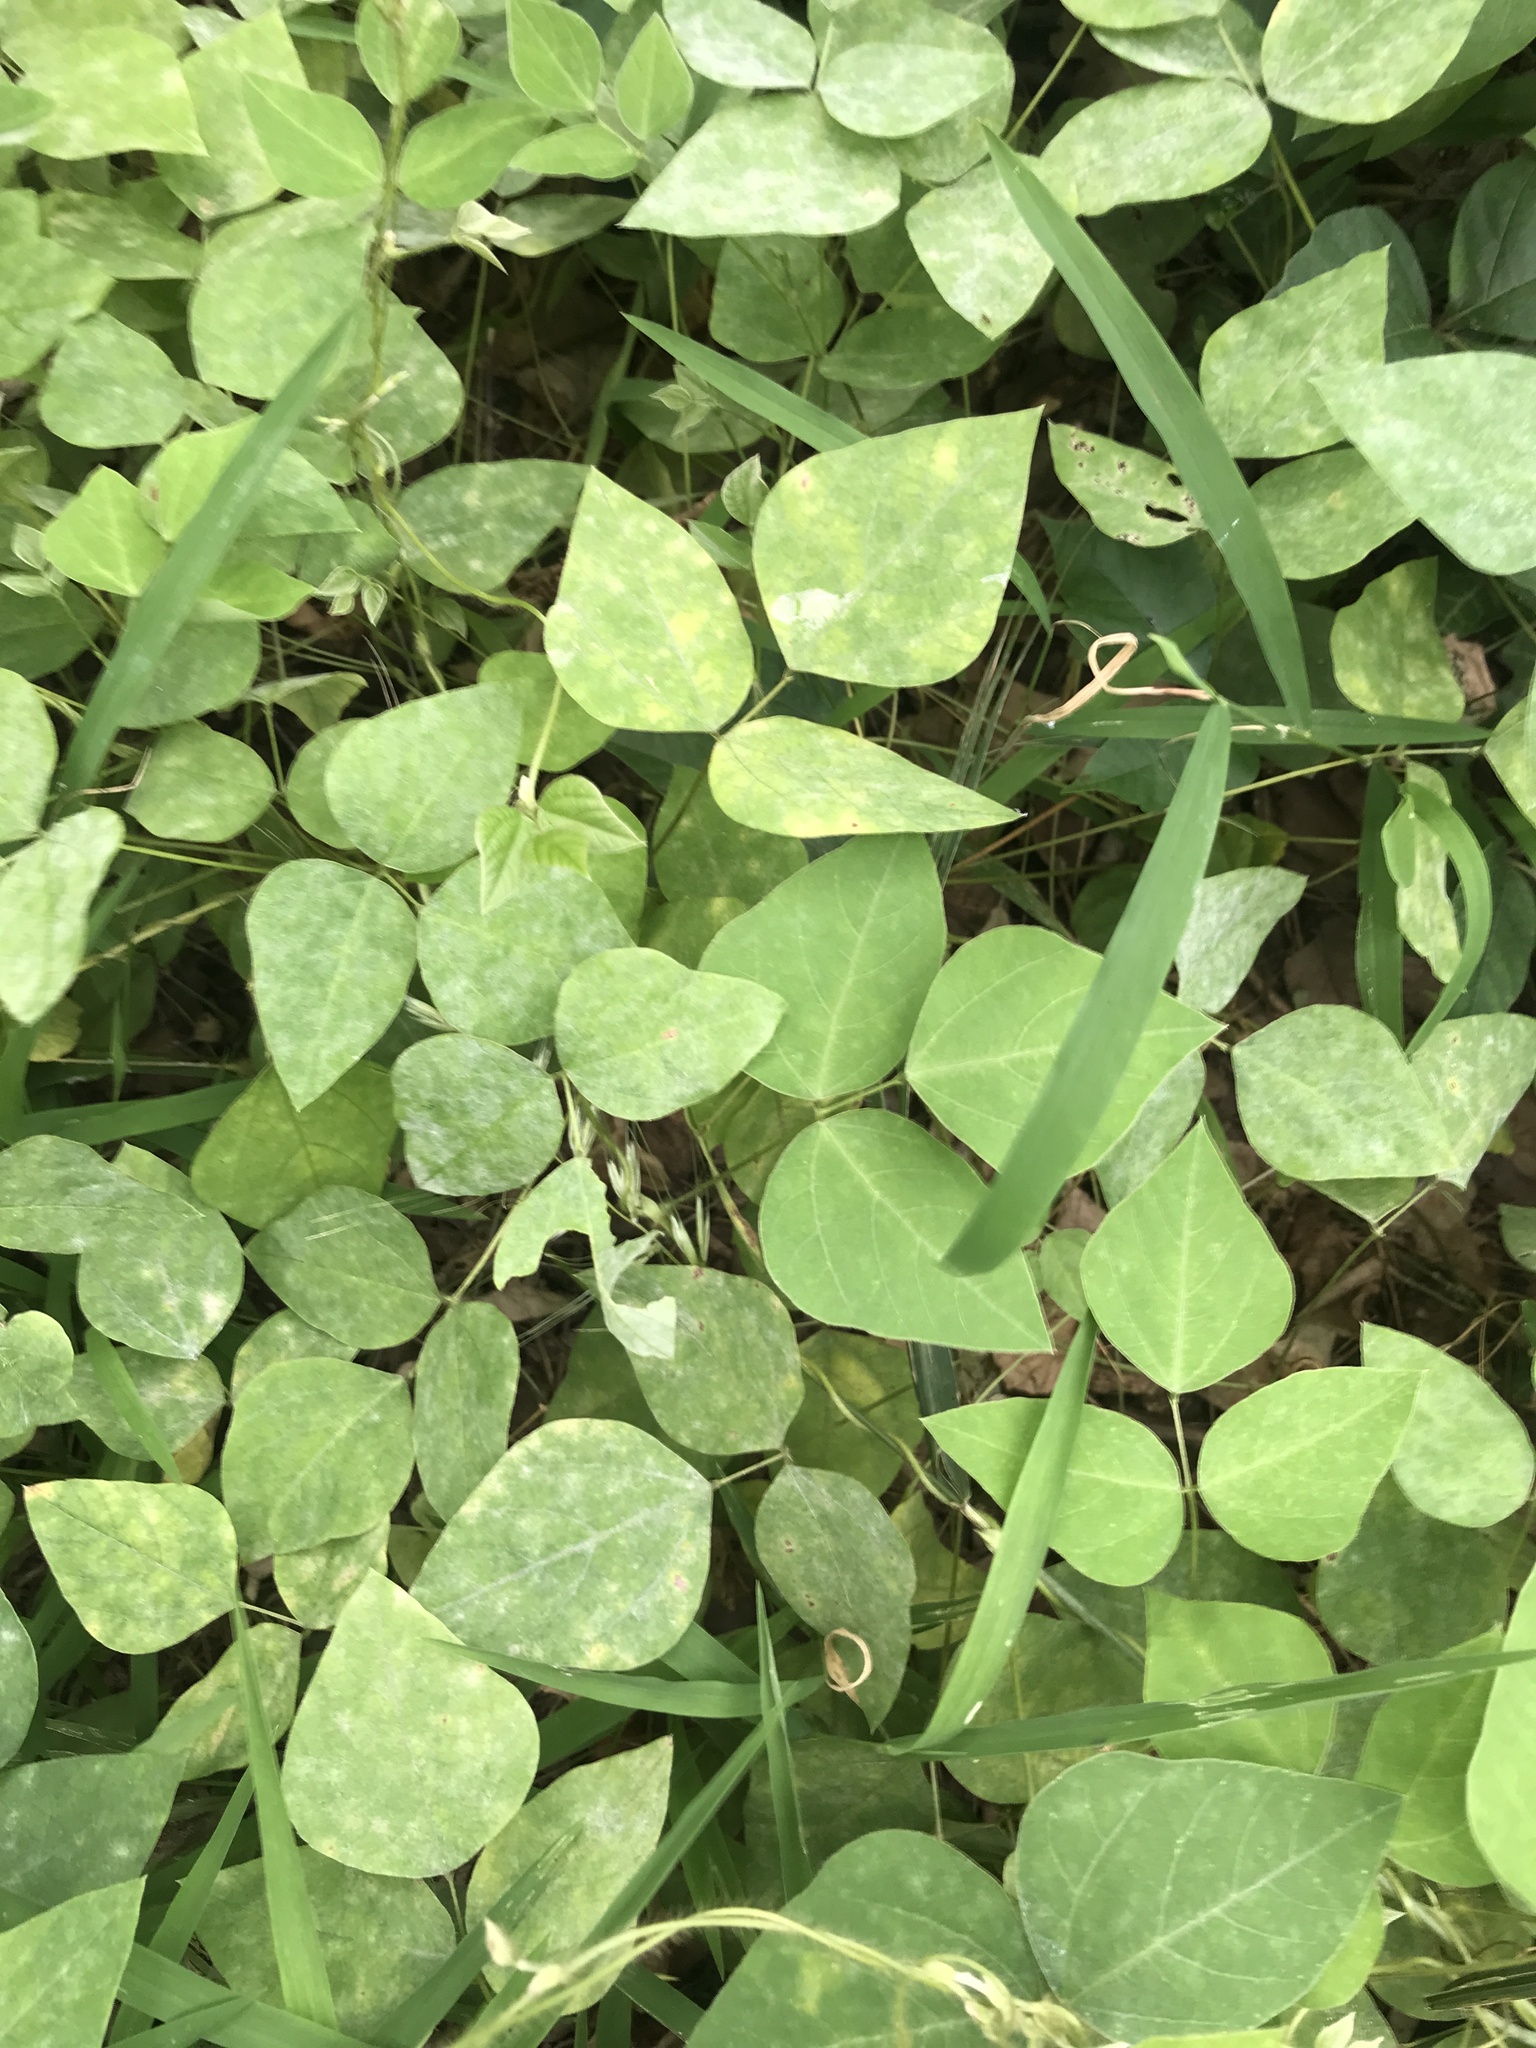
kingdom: Plantae
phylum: Tracheophyta
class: Magnoliopsida
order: Fabales
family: Fabaceae
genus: Amphicarpaea
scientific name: Amphicarpaea bracteata
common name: American hog peanut
